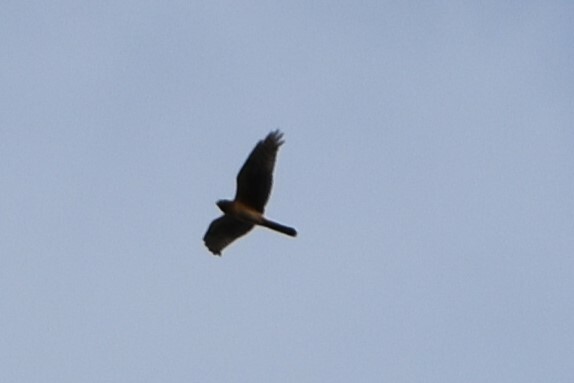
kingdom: Animalia
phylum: Chordata
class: Aves
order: Accipitriformes
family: Accipitridae
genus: Circus
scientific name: Circus cyaneus
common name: Hen harrier
